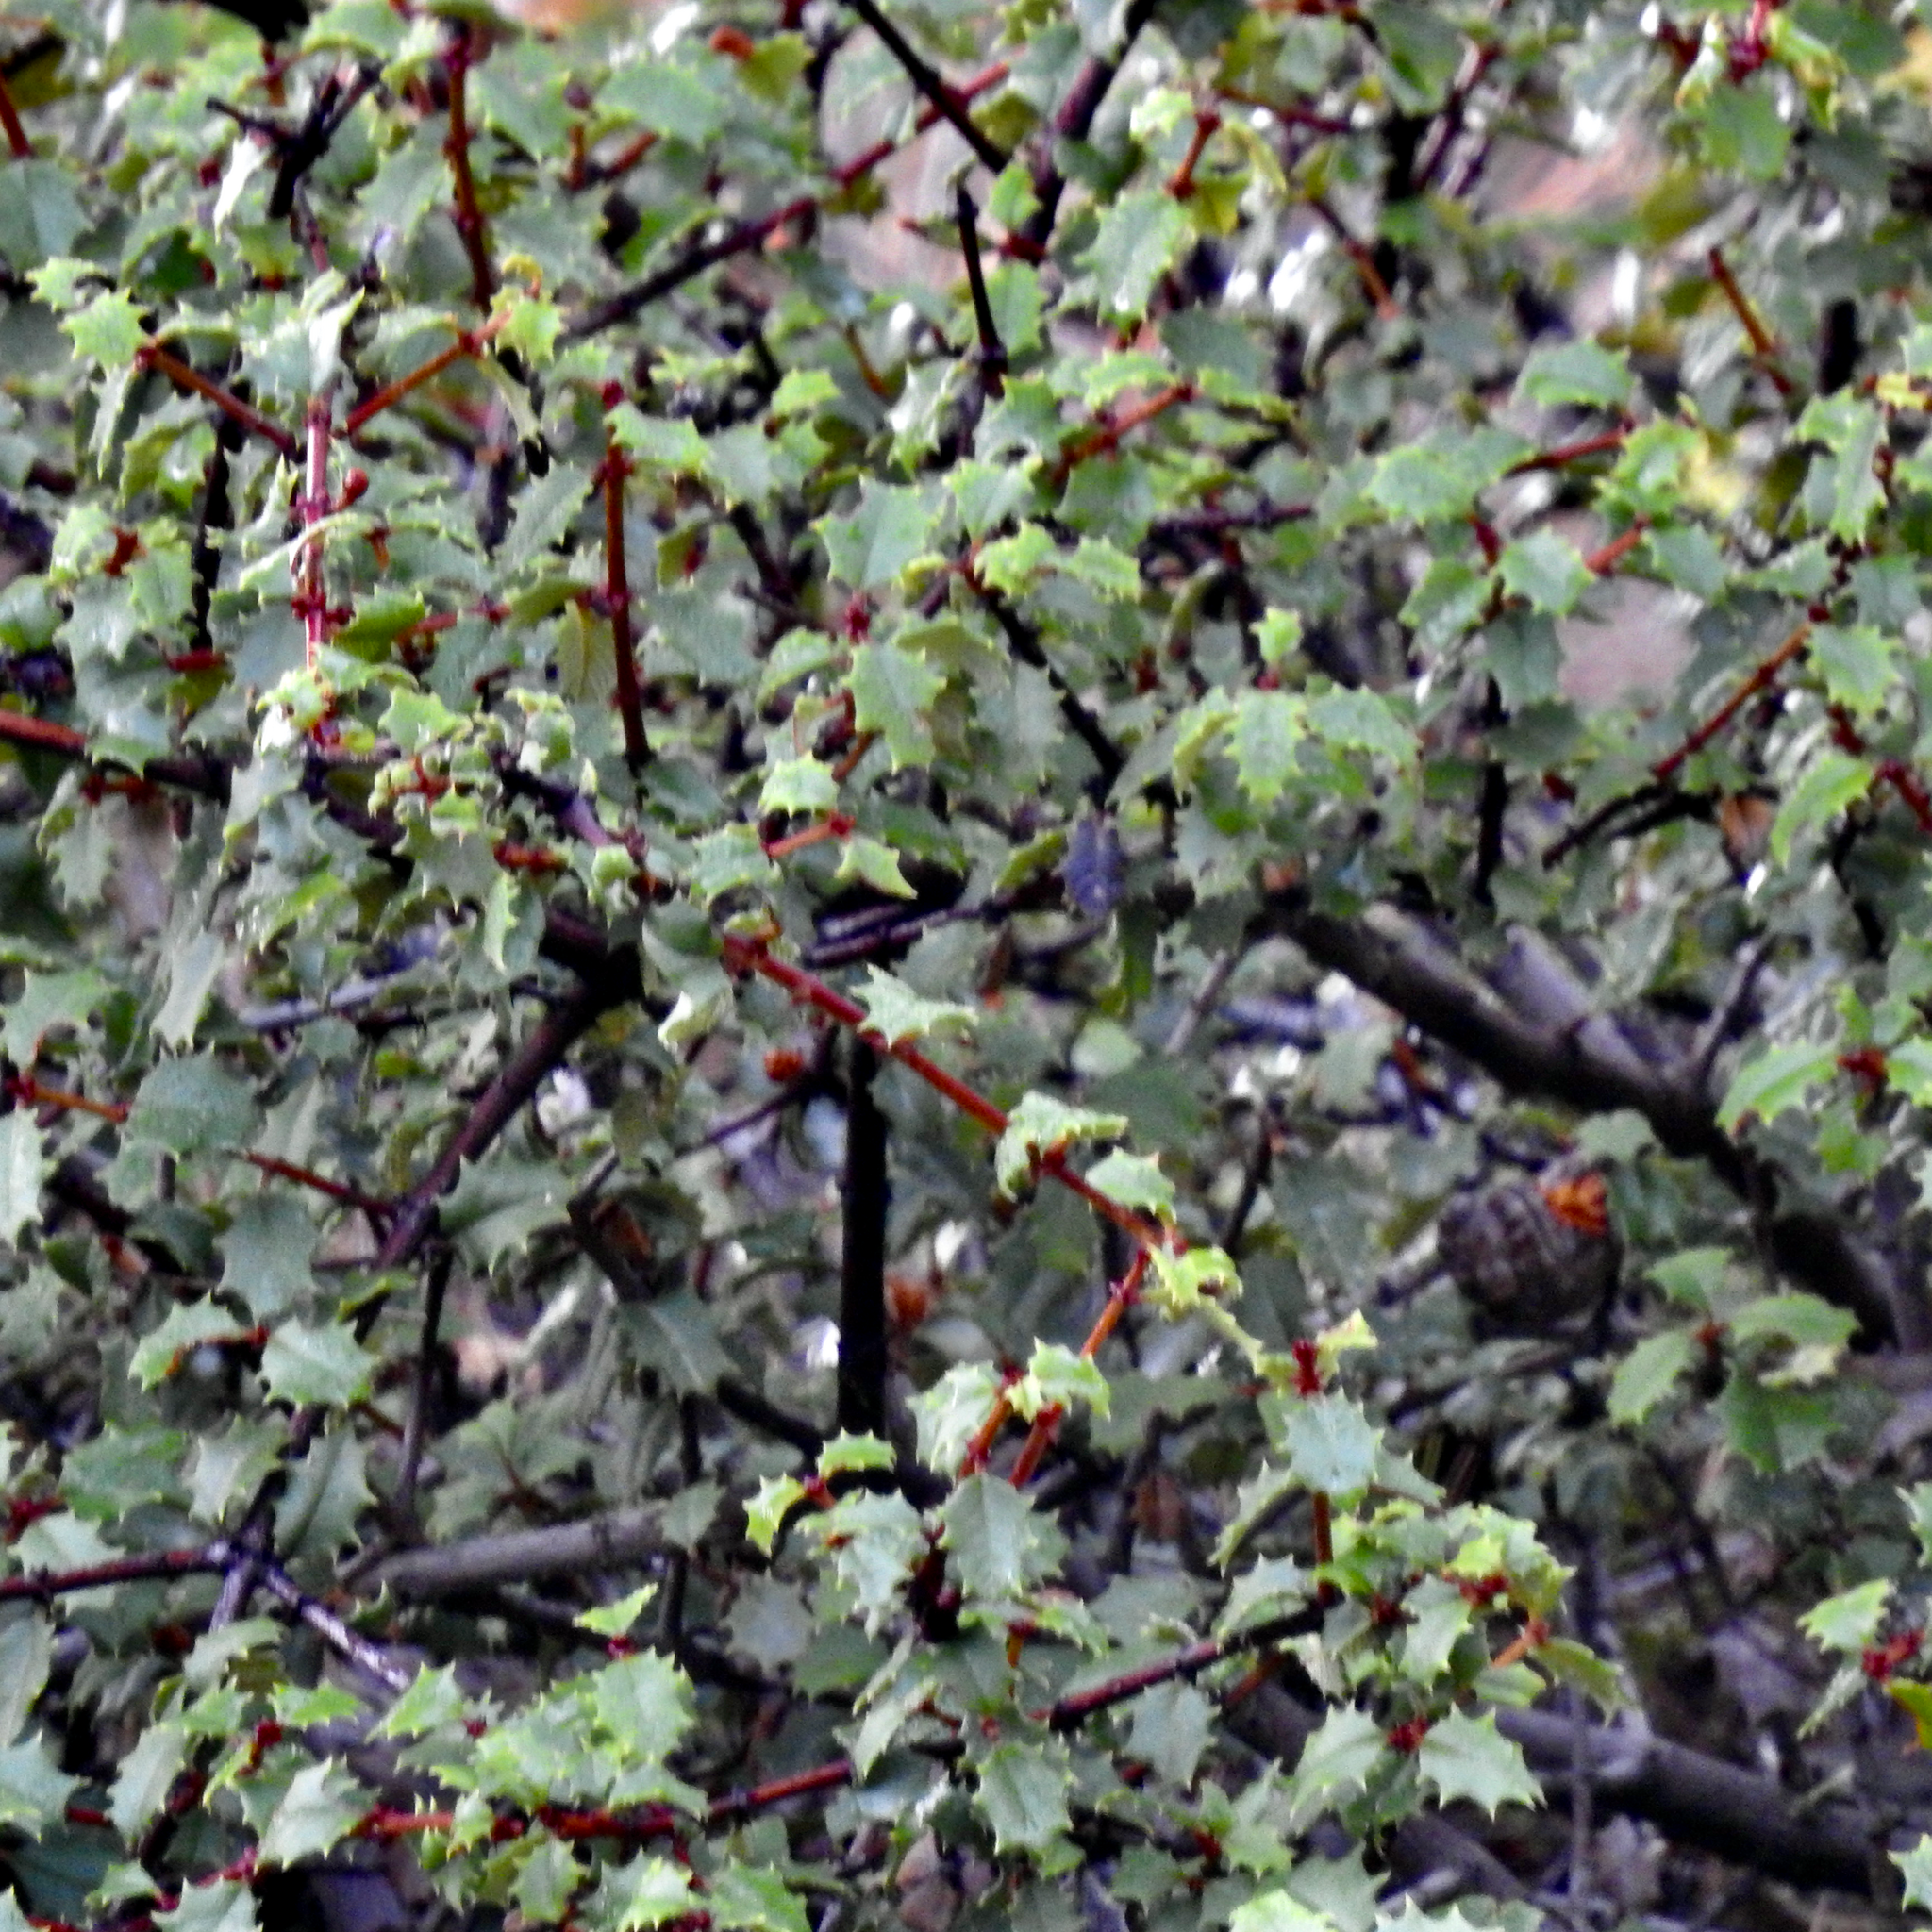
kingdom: Plantae
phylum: Tracheophyta
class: Magnoliopsida
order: Rosales
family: Rhamnaceae
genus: Ceanothus
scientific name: Ceanothus jepsonii
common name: Muskbrush
